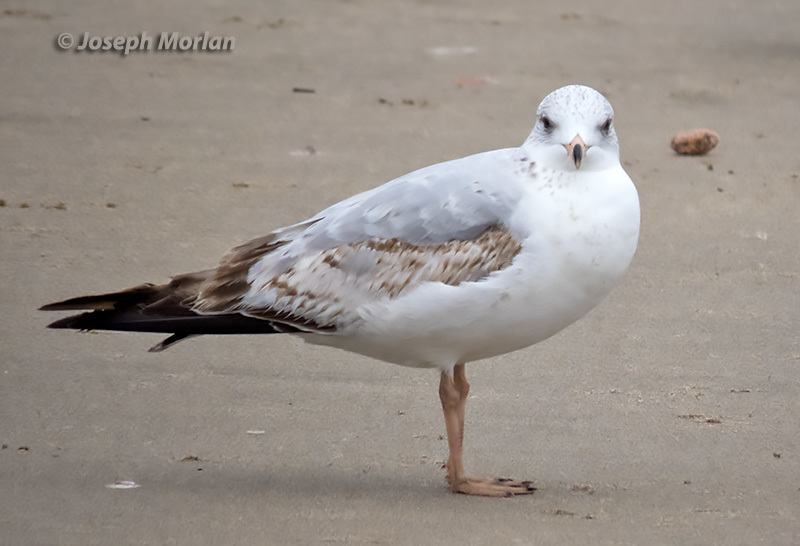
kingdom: Animalia
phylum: Chordata
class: Aves
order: Charadriiformes
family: Laridae
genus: Larus
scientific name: Larus delawarensis
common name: Ring-billed gull
